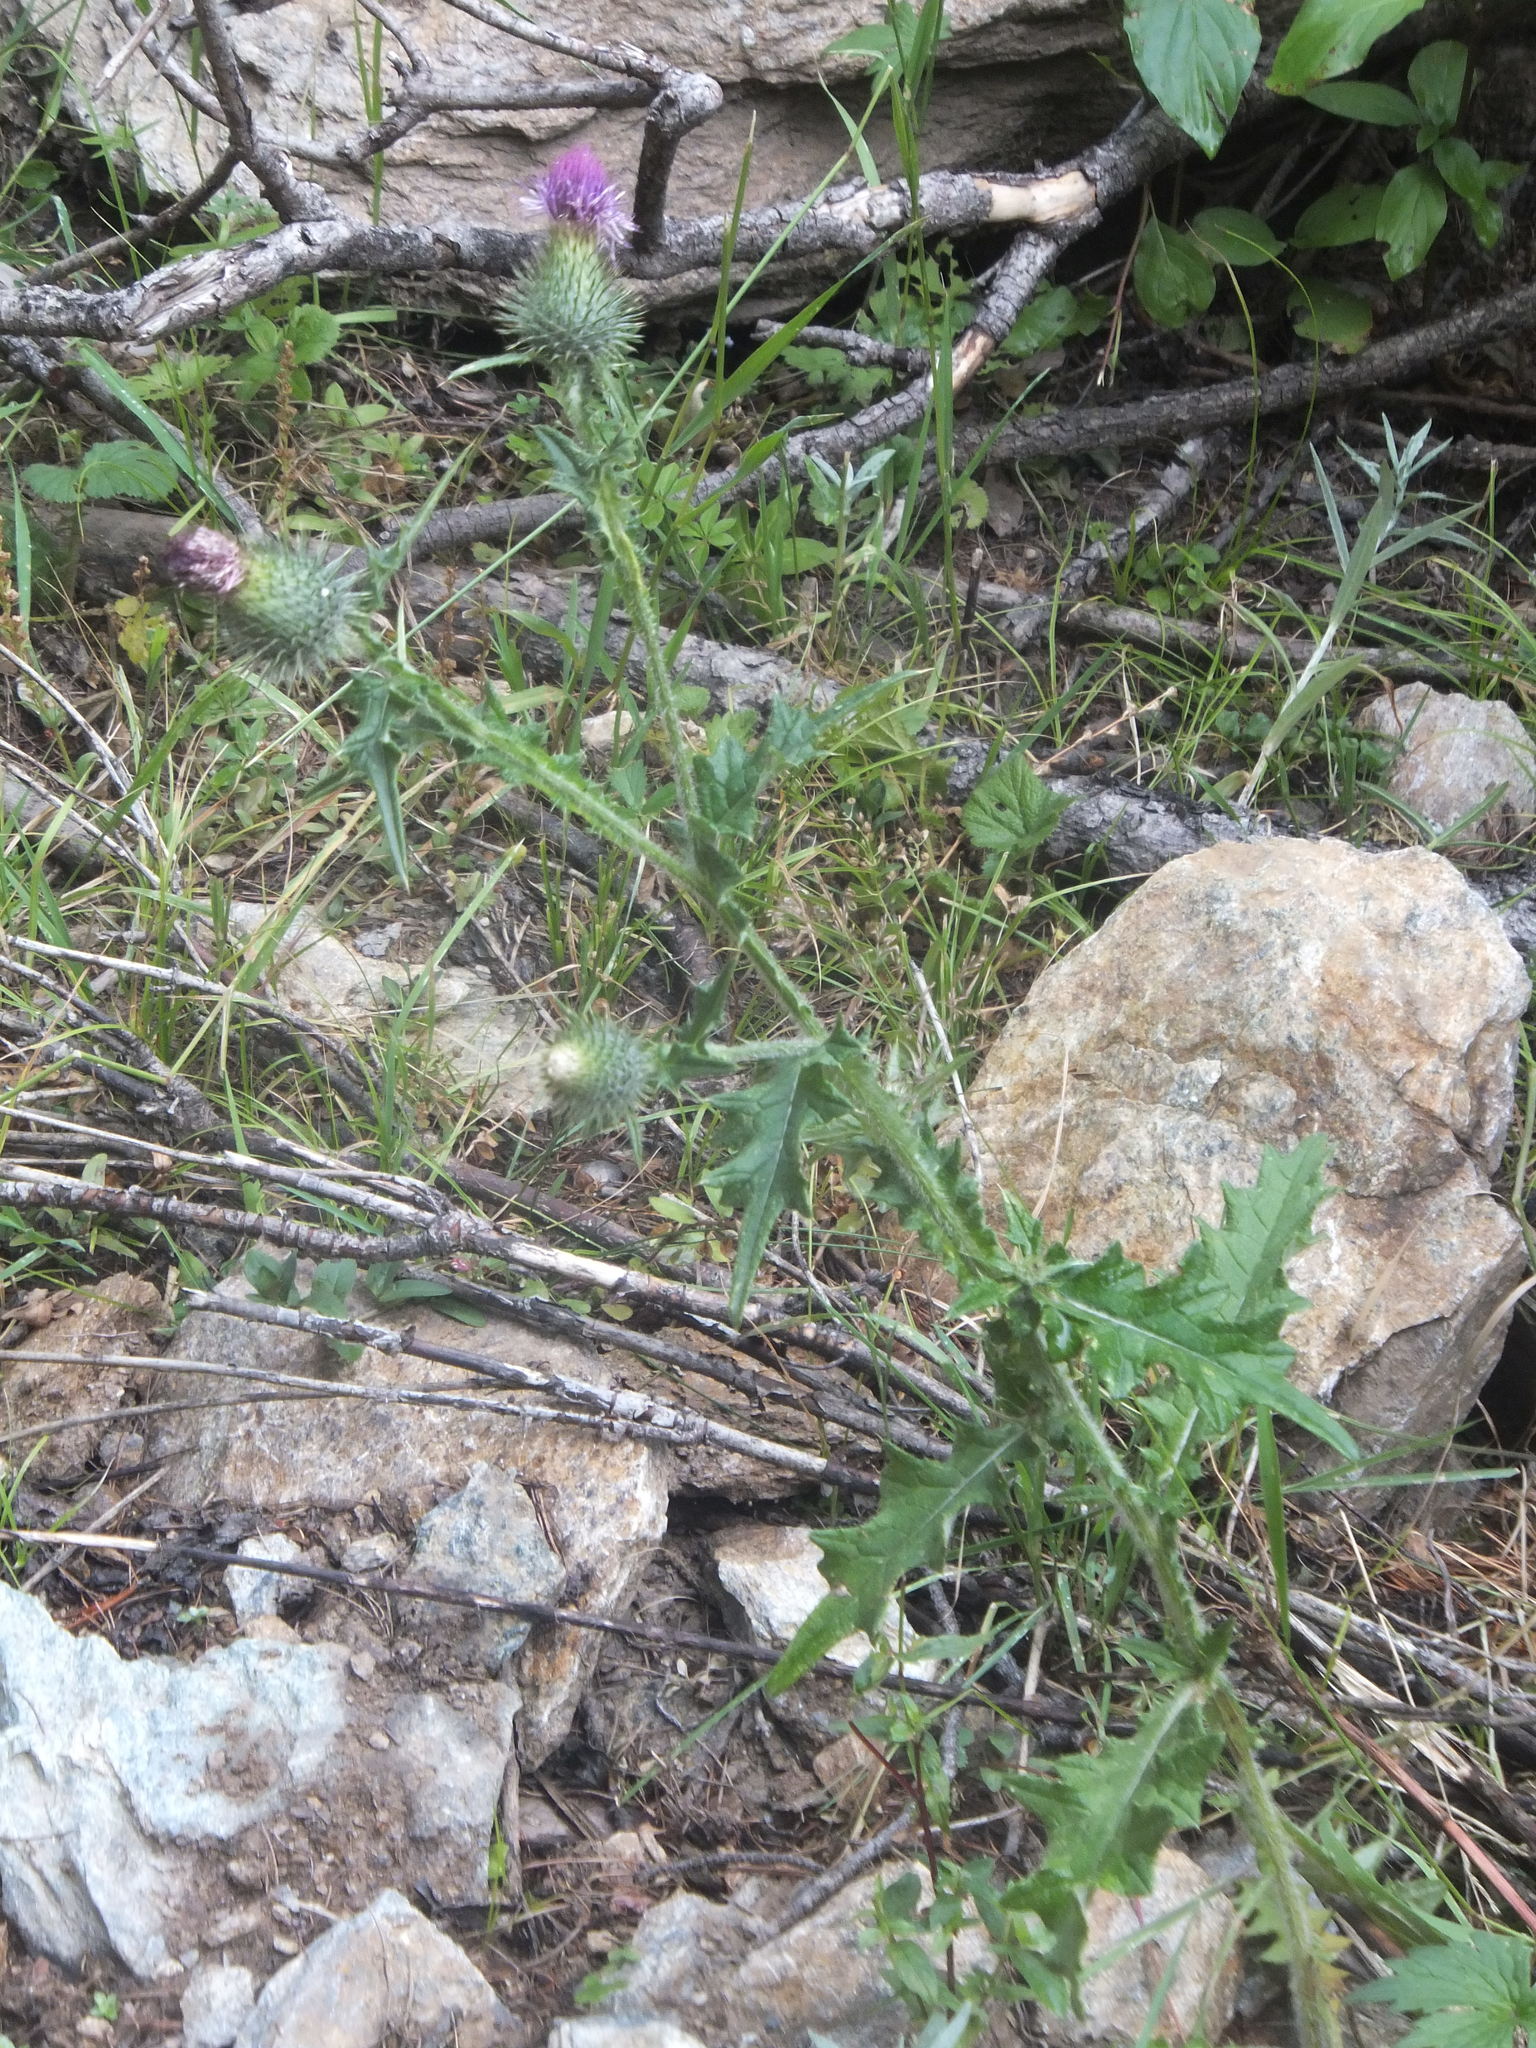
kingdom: Plantae
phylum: Tracheophyta
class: Magnoliopsida
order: Asterales
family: Asteraceae
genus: Cirsium
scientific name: Cirsium vulgare
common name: Bull thistle
